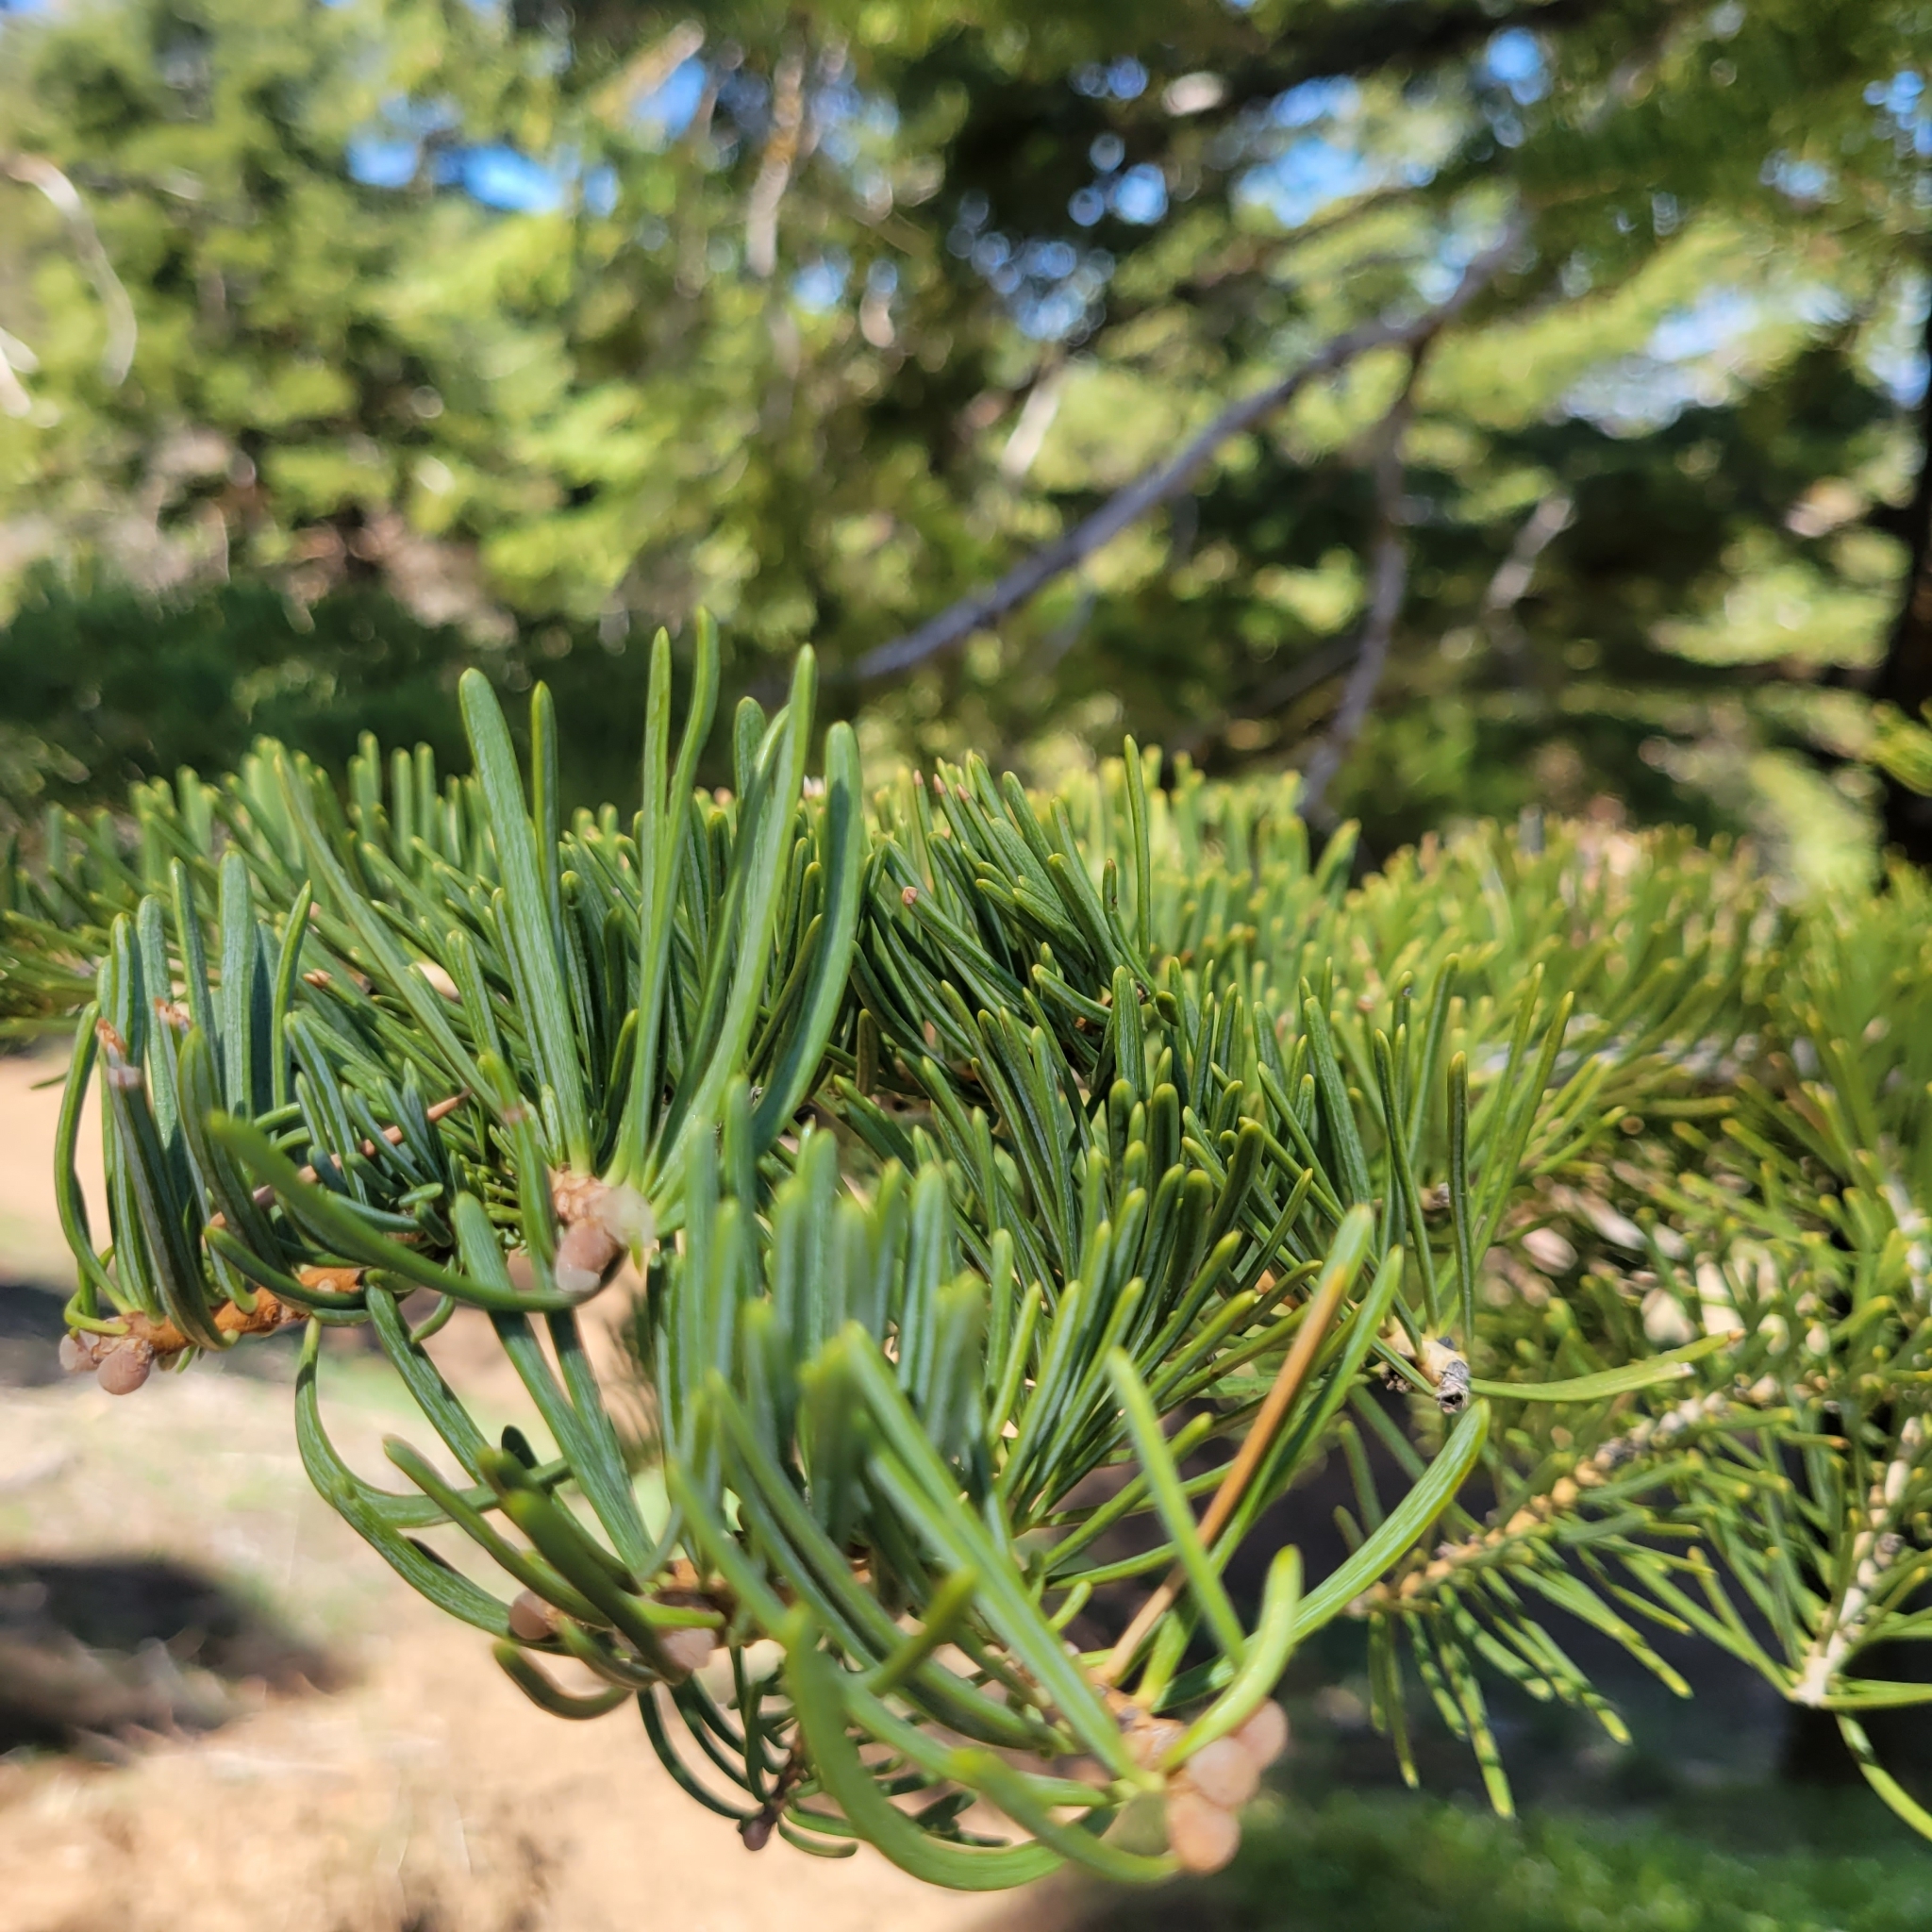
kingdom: Plantae
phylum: Tracheophyta
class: Pinopsida
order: Pinales
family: Pinaceae
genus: Abies
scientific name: Abies concolor
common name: Colorado fir
